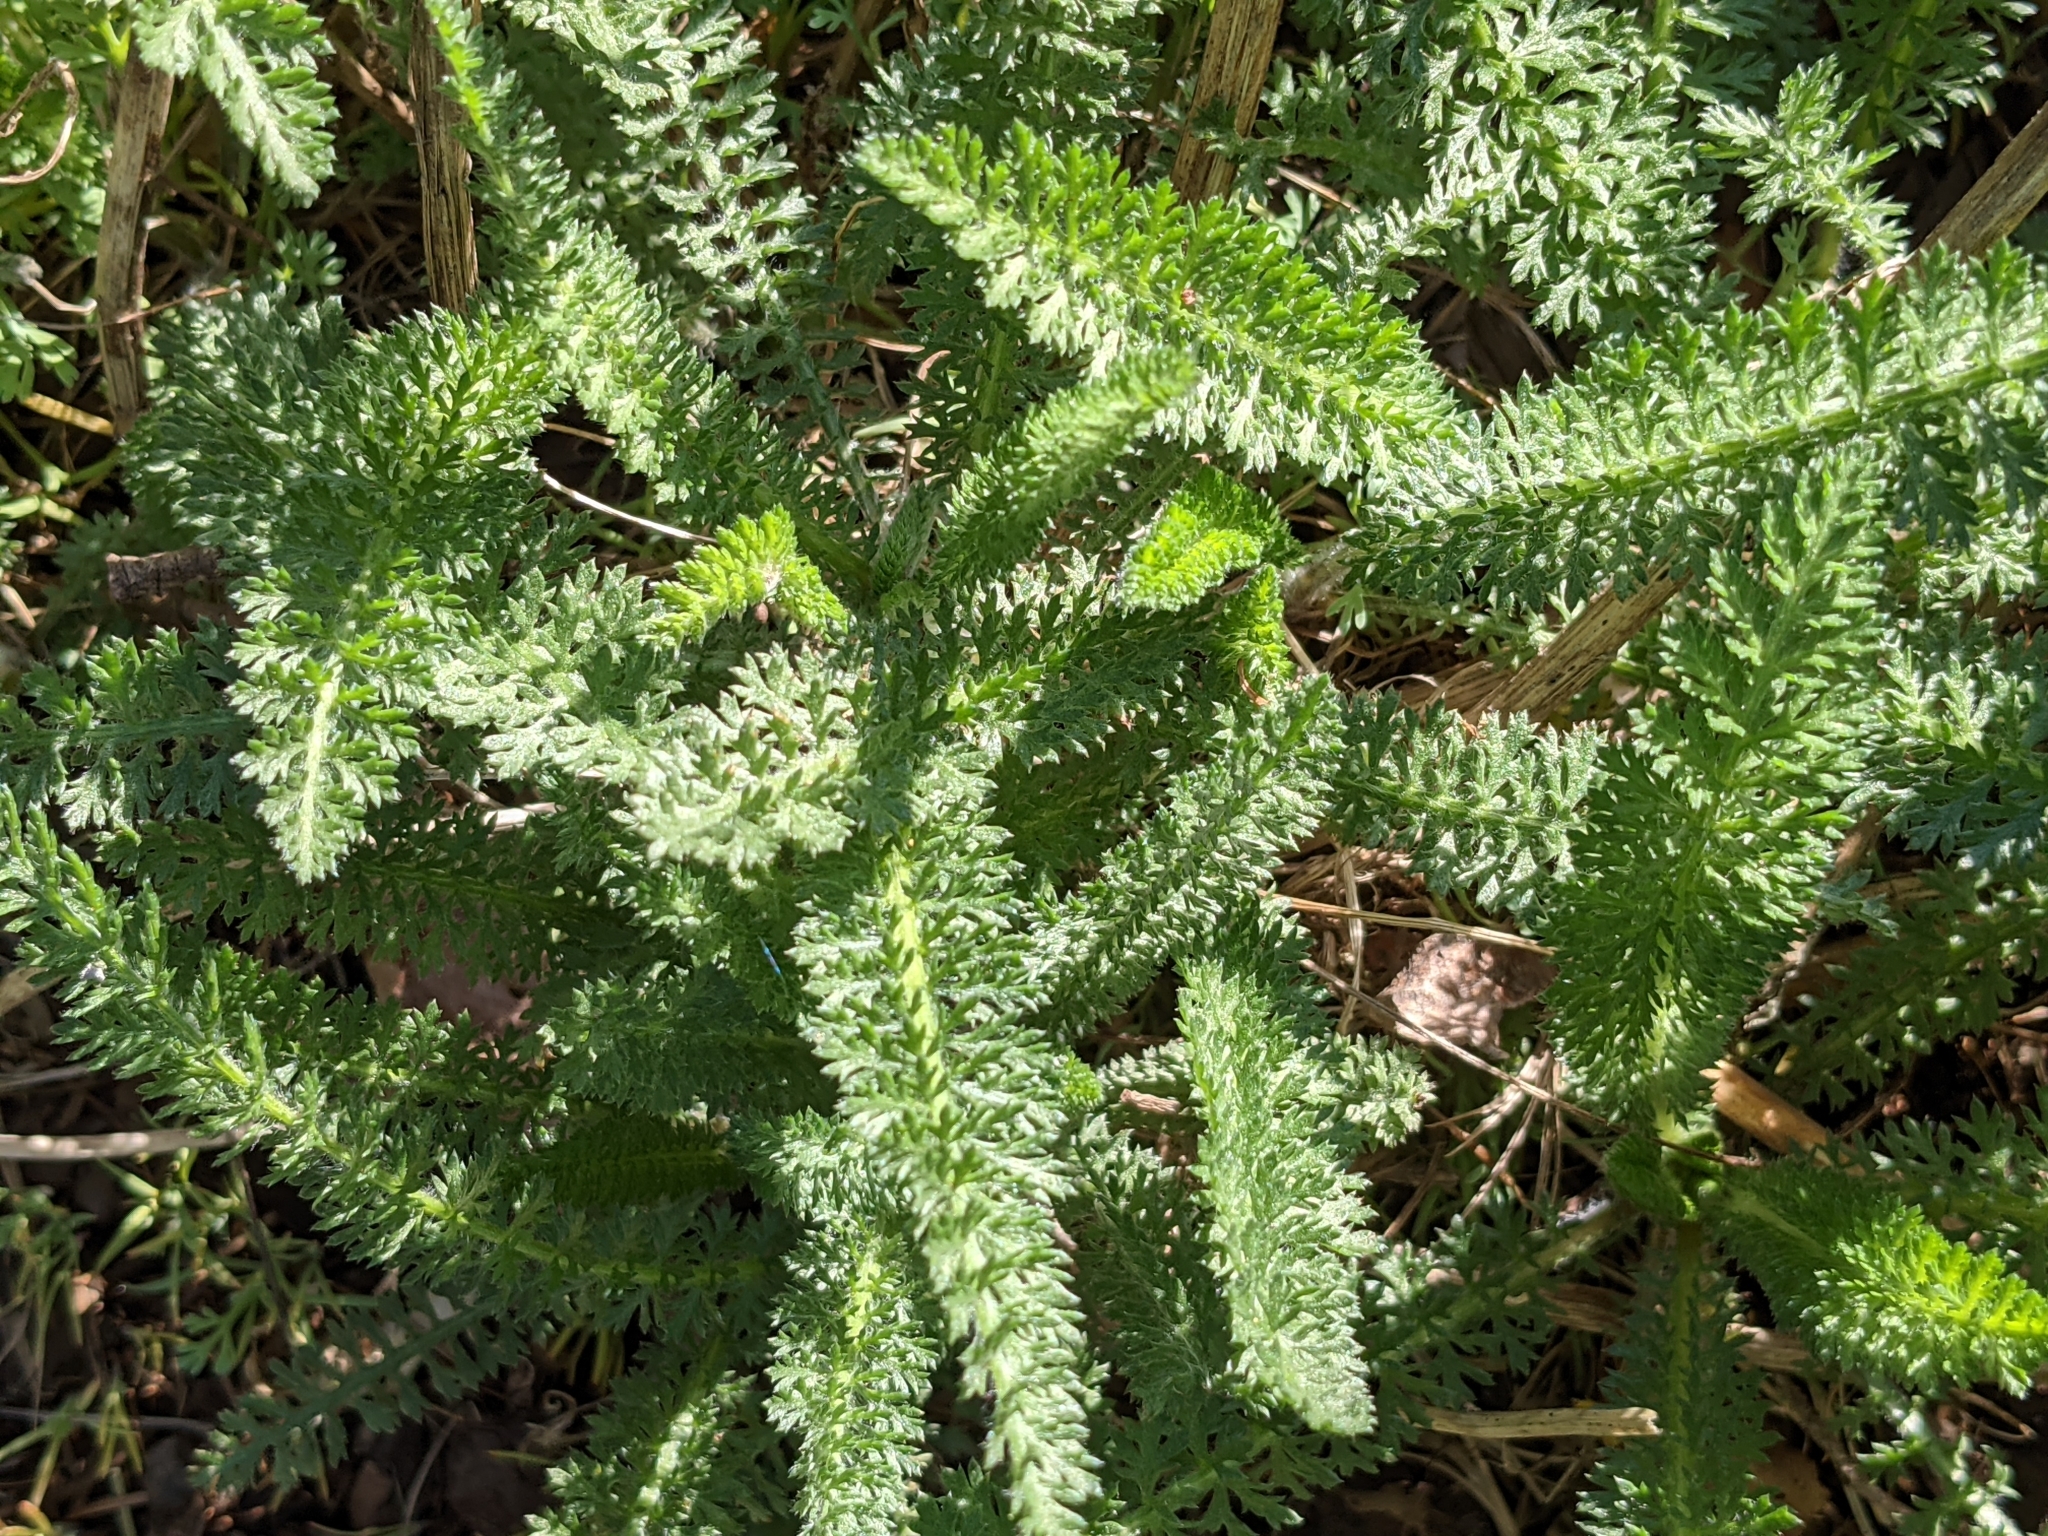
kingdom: Plantae
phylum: Tracheophyta
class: Magnoliopsida
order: Asterales
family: Asteraceae
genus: Achillea
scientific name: Achillea millefolium
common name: Yarrow
